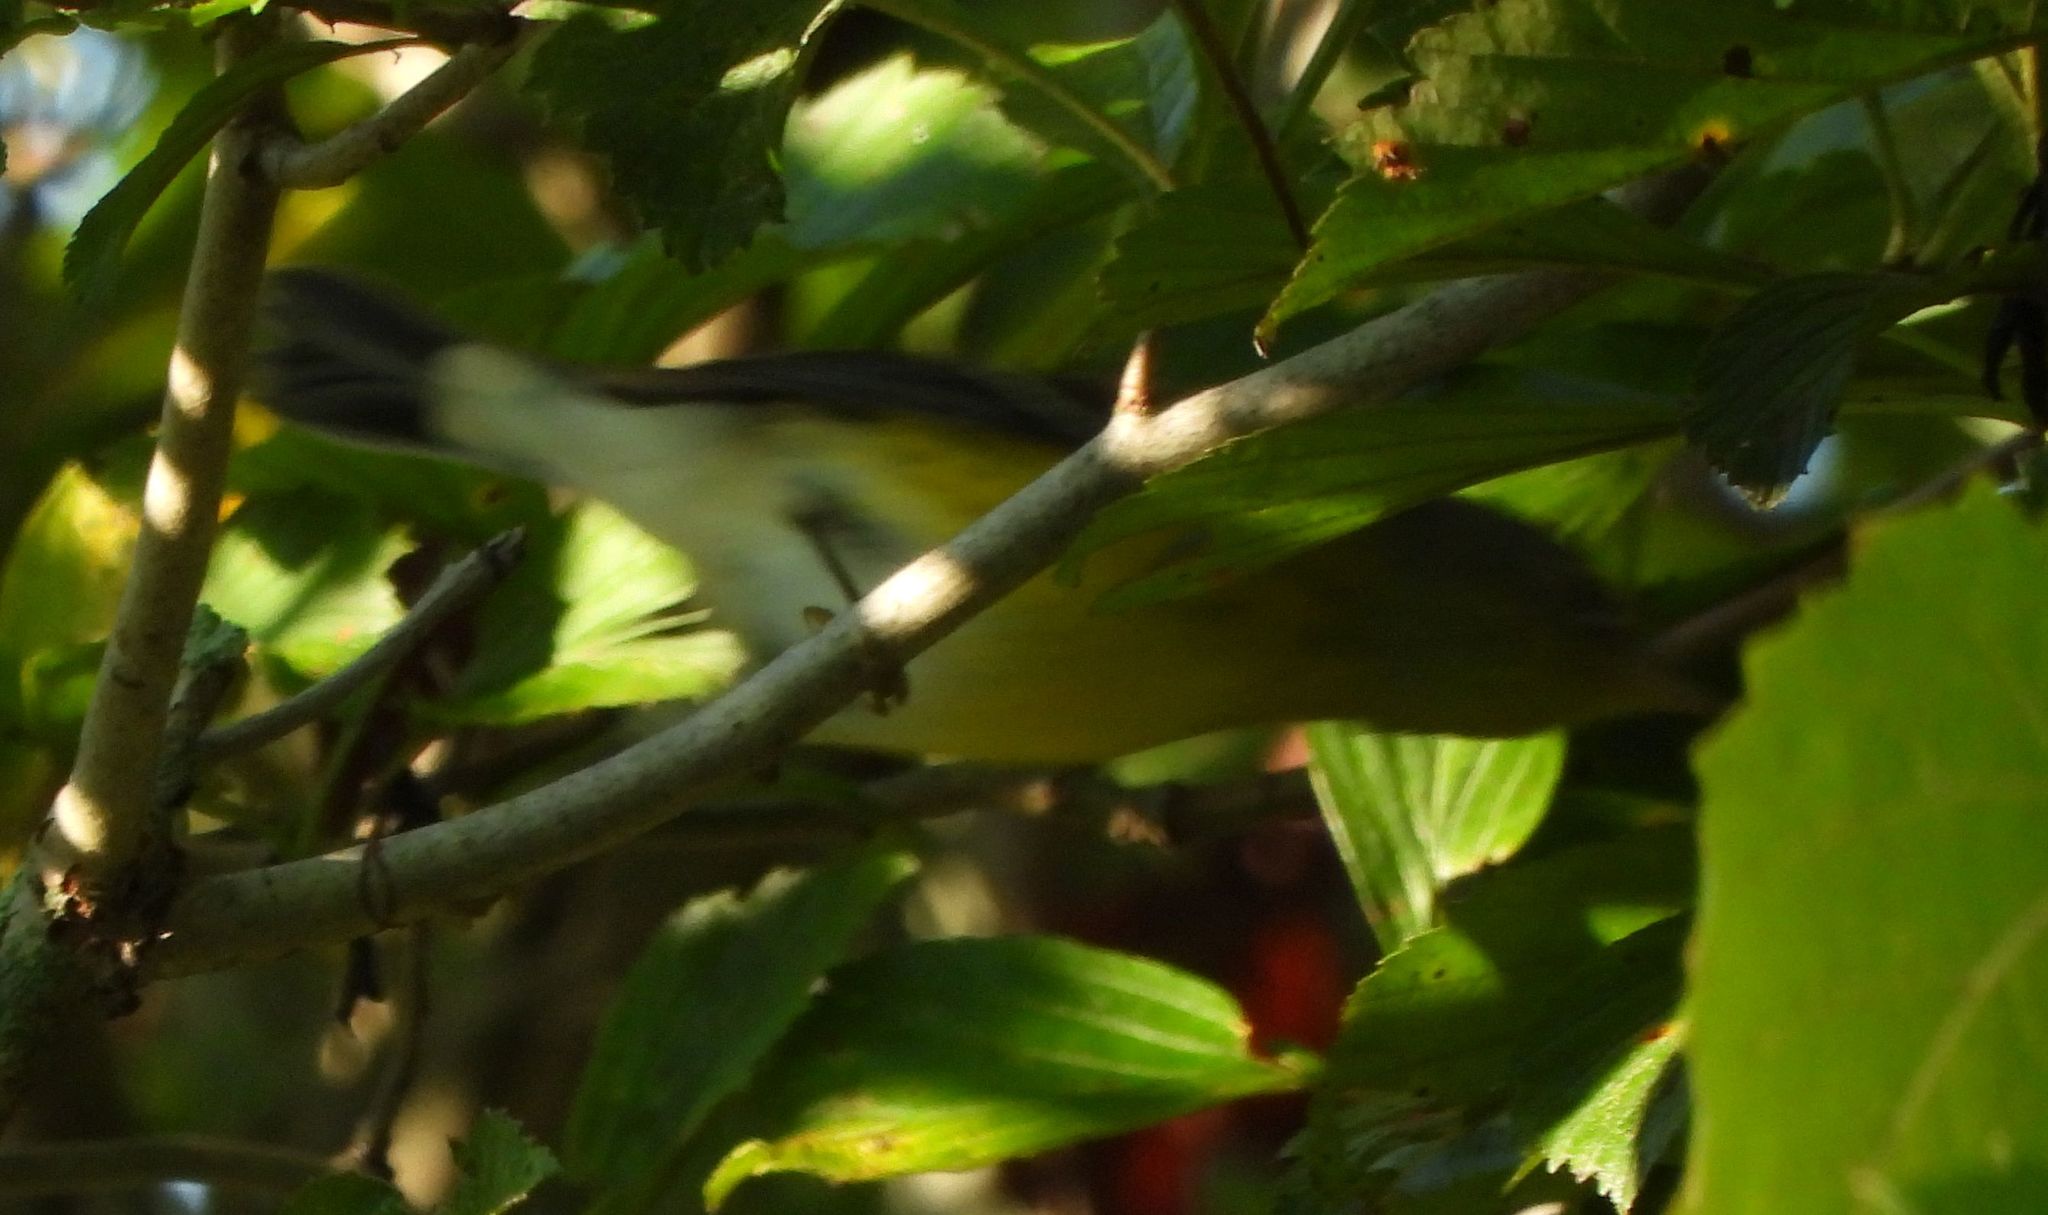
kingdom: Animalia
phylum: Chordata
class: Aves
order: Passeriformes
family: Parulidae
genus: Setophaga
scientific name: Setophaga magnolia
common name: Magnolia warbler
